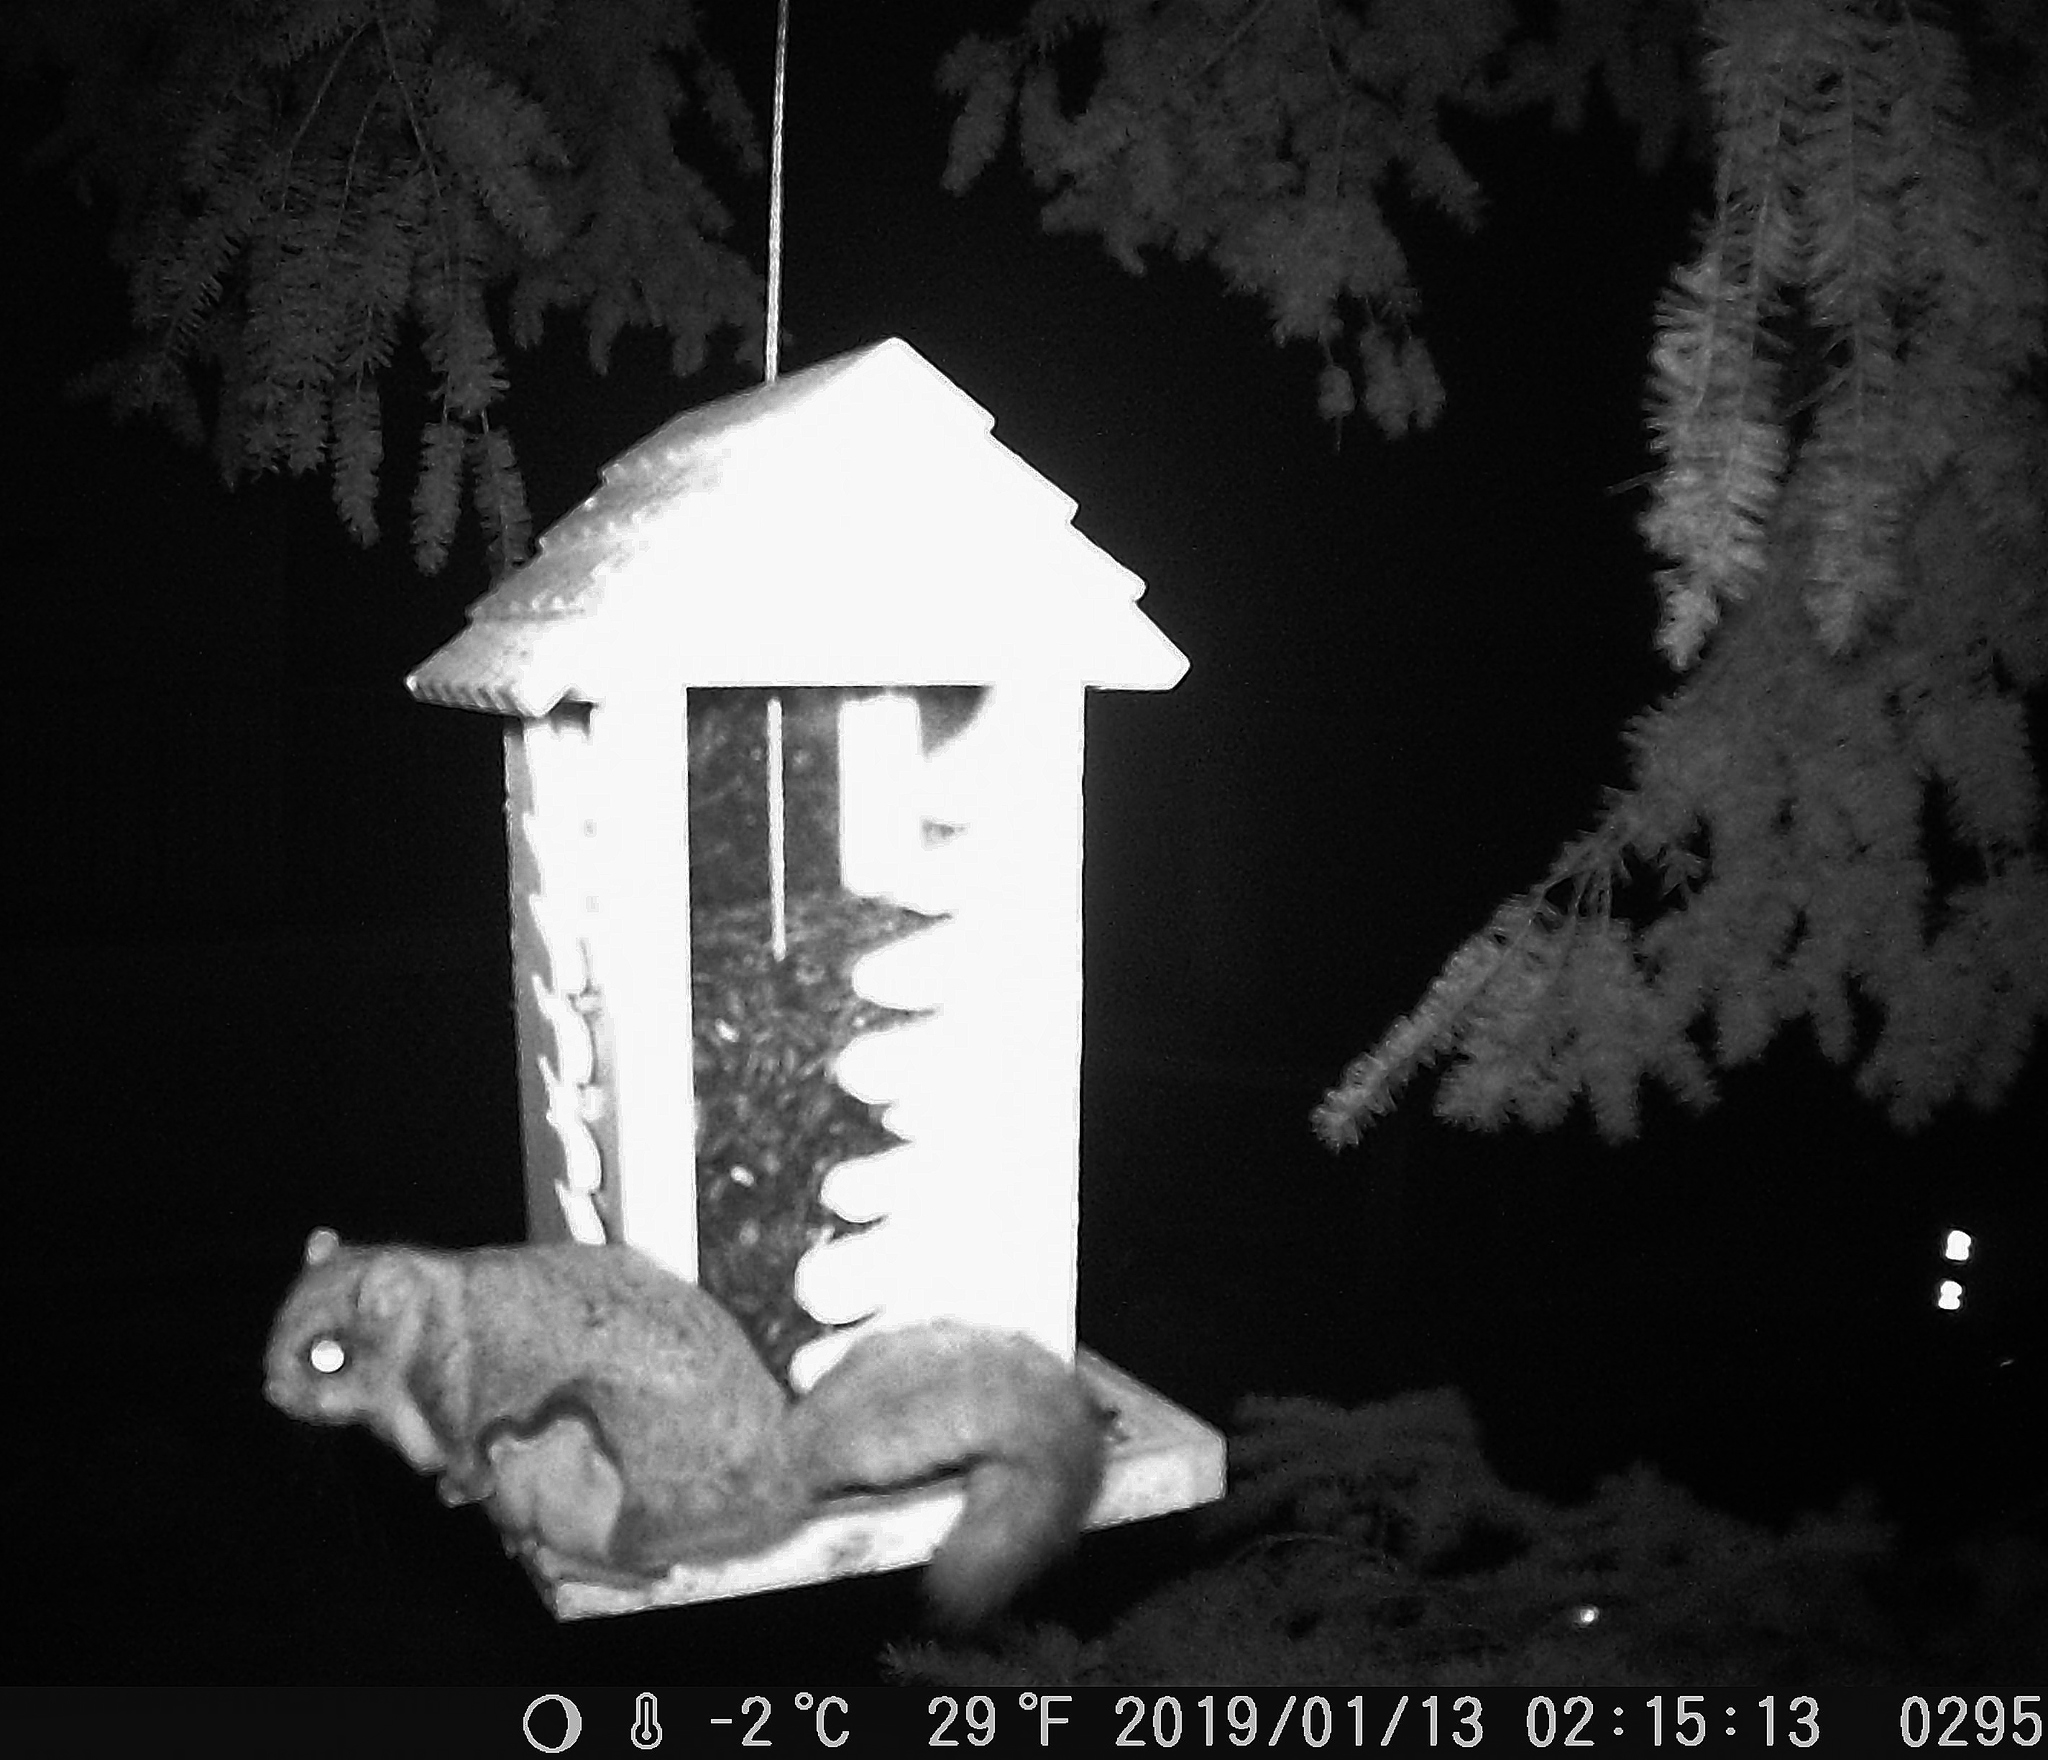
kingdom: Animalia
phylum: Chordata
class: Mammalia
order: Rodentia
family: Sciuridae
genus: Glaucomys
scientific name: Glaucomys sabrinus
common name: Northern flying squirrel
